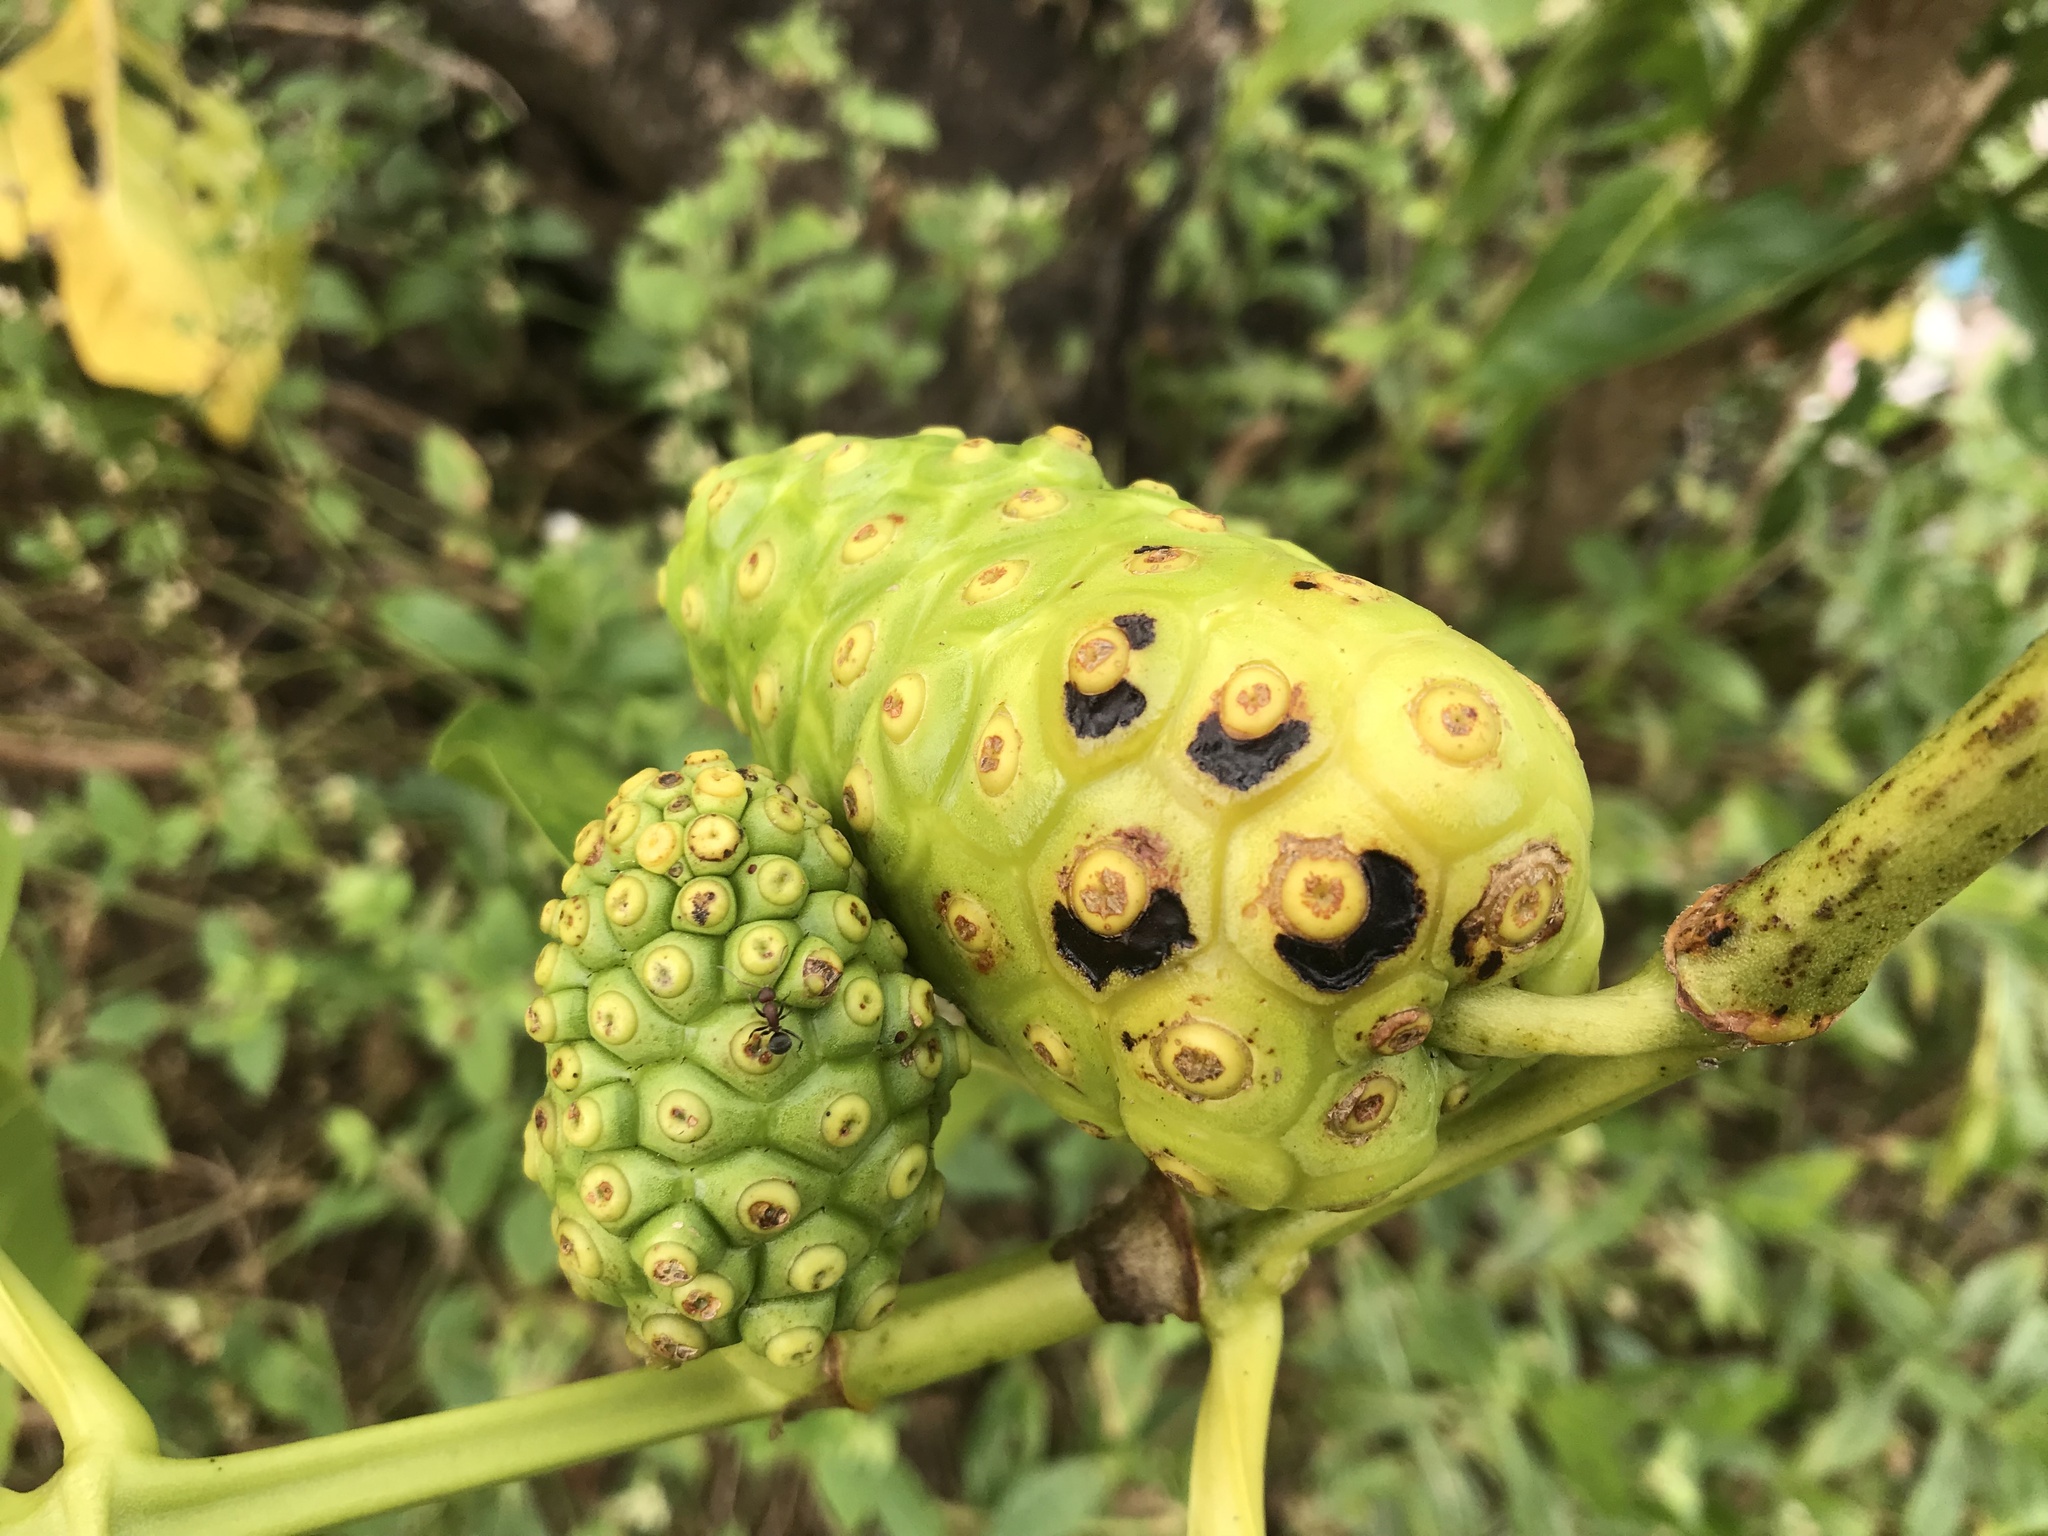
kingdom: Plantae
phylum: Tracheophyta
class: Magnoliopsida
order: Gentianales
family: Rubiaceae
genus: Morinda
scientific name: Morinda citrifolia
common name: Indian-mulberry
